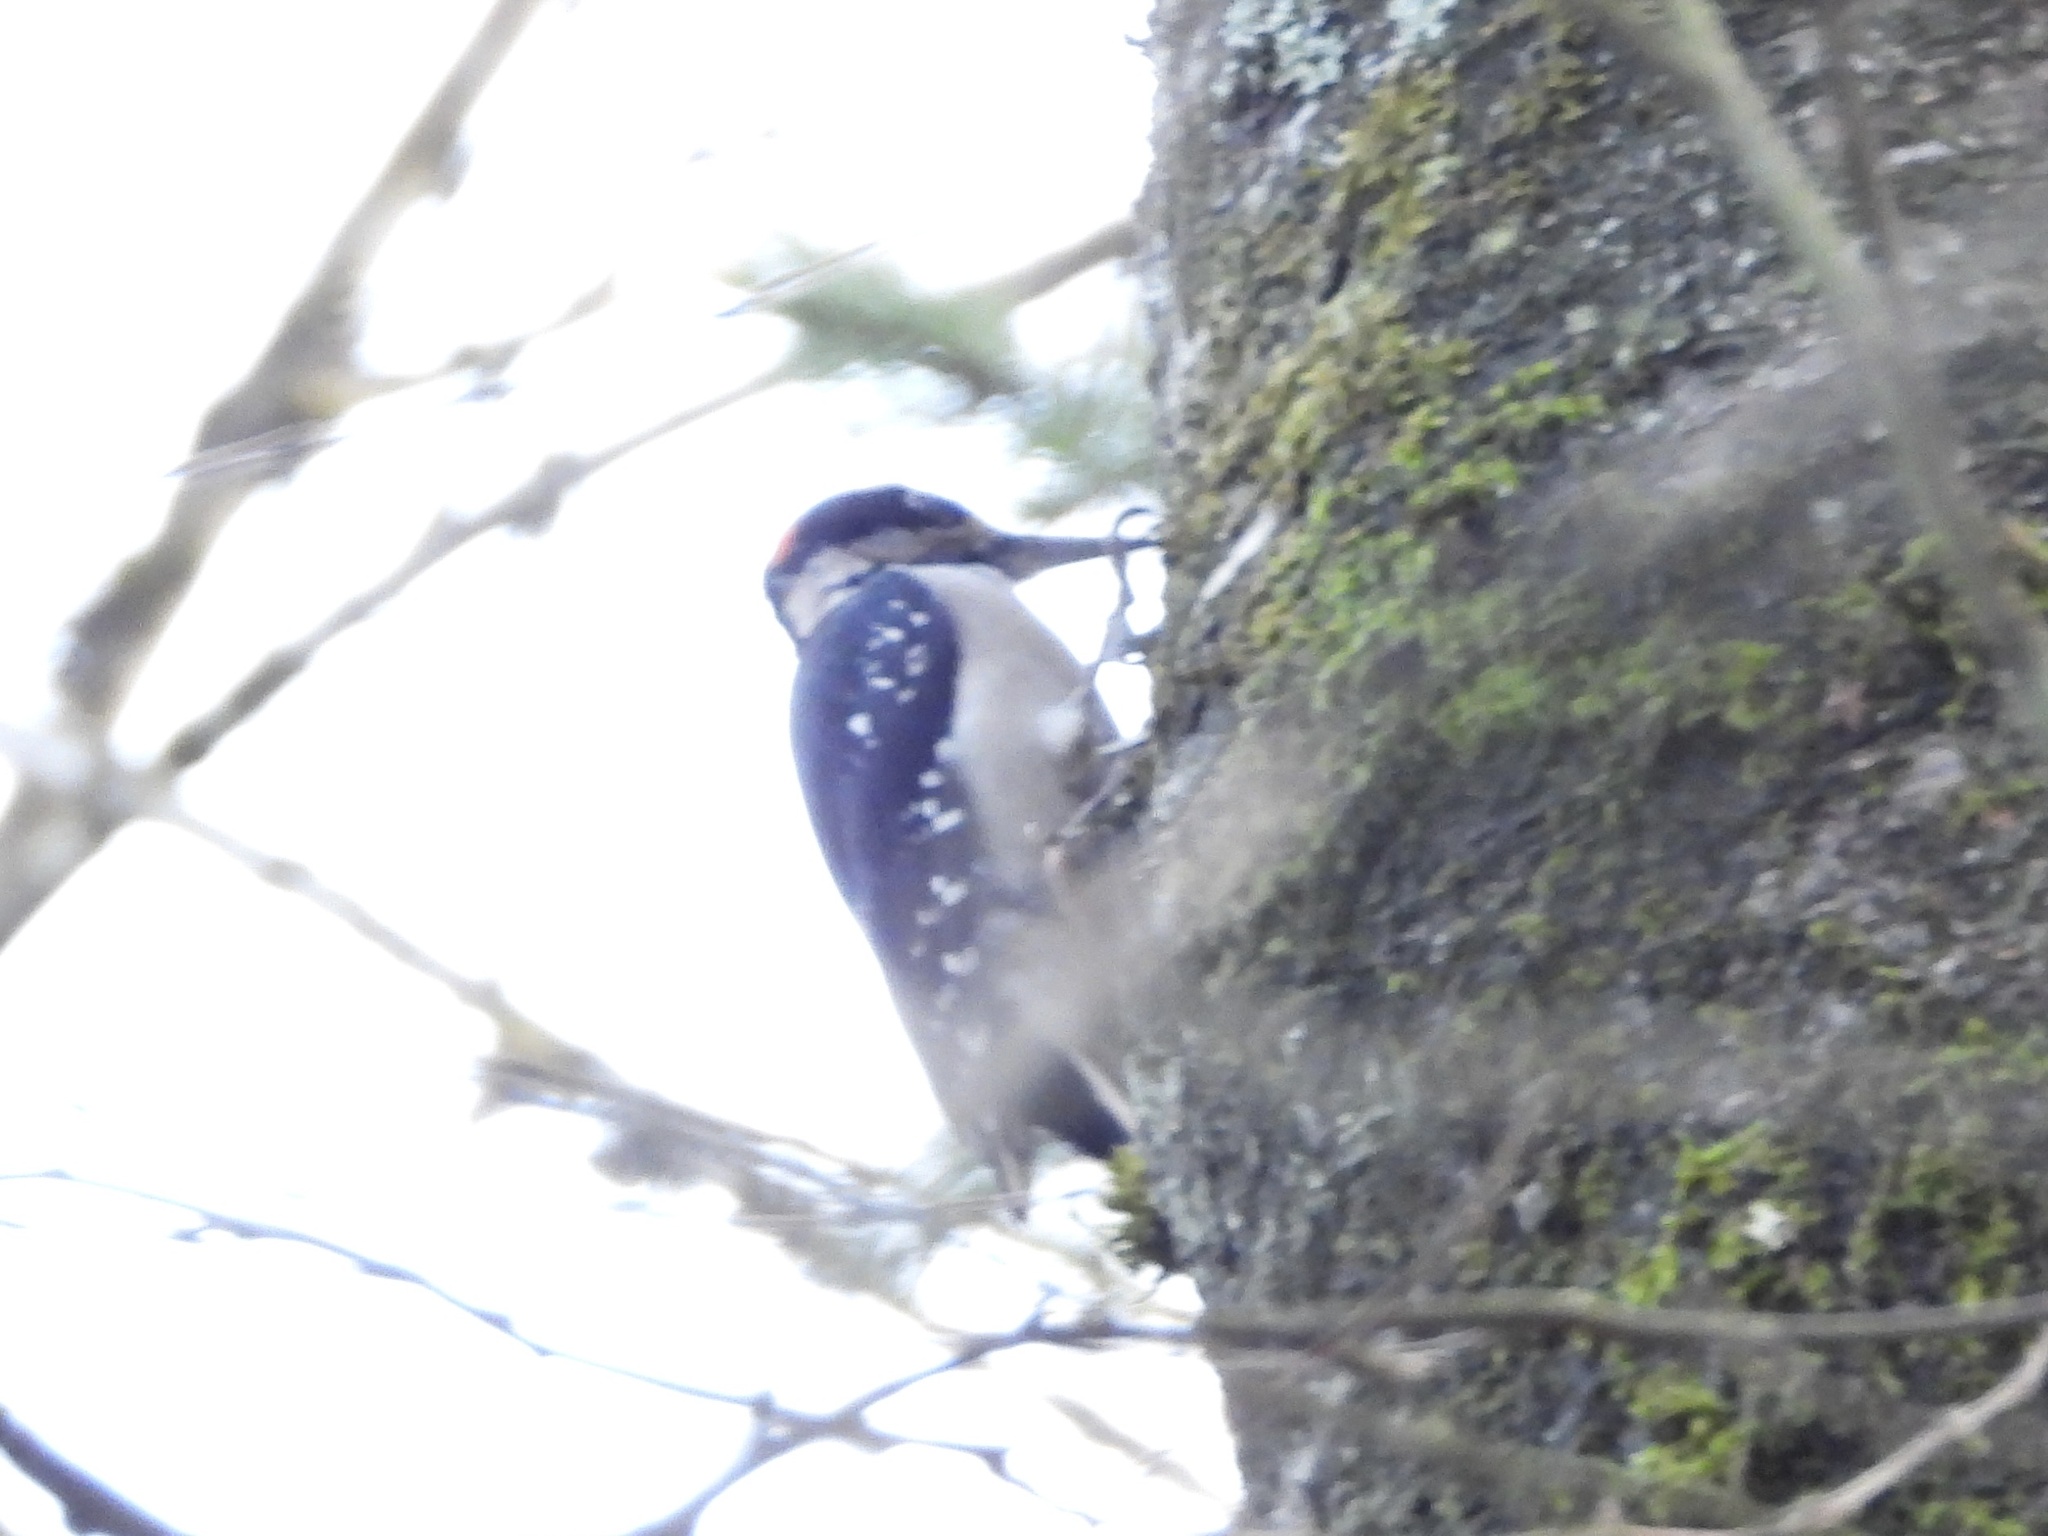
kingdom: Animalia
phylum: Chordata
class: Aves
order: Piciformes
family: Picidae
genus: Leuconotopicus
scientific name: Leuconotopicus villosus
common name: Hairy woodpecker
